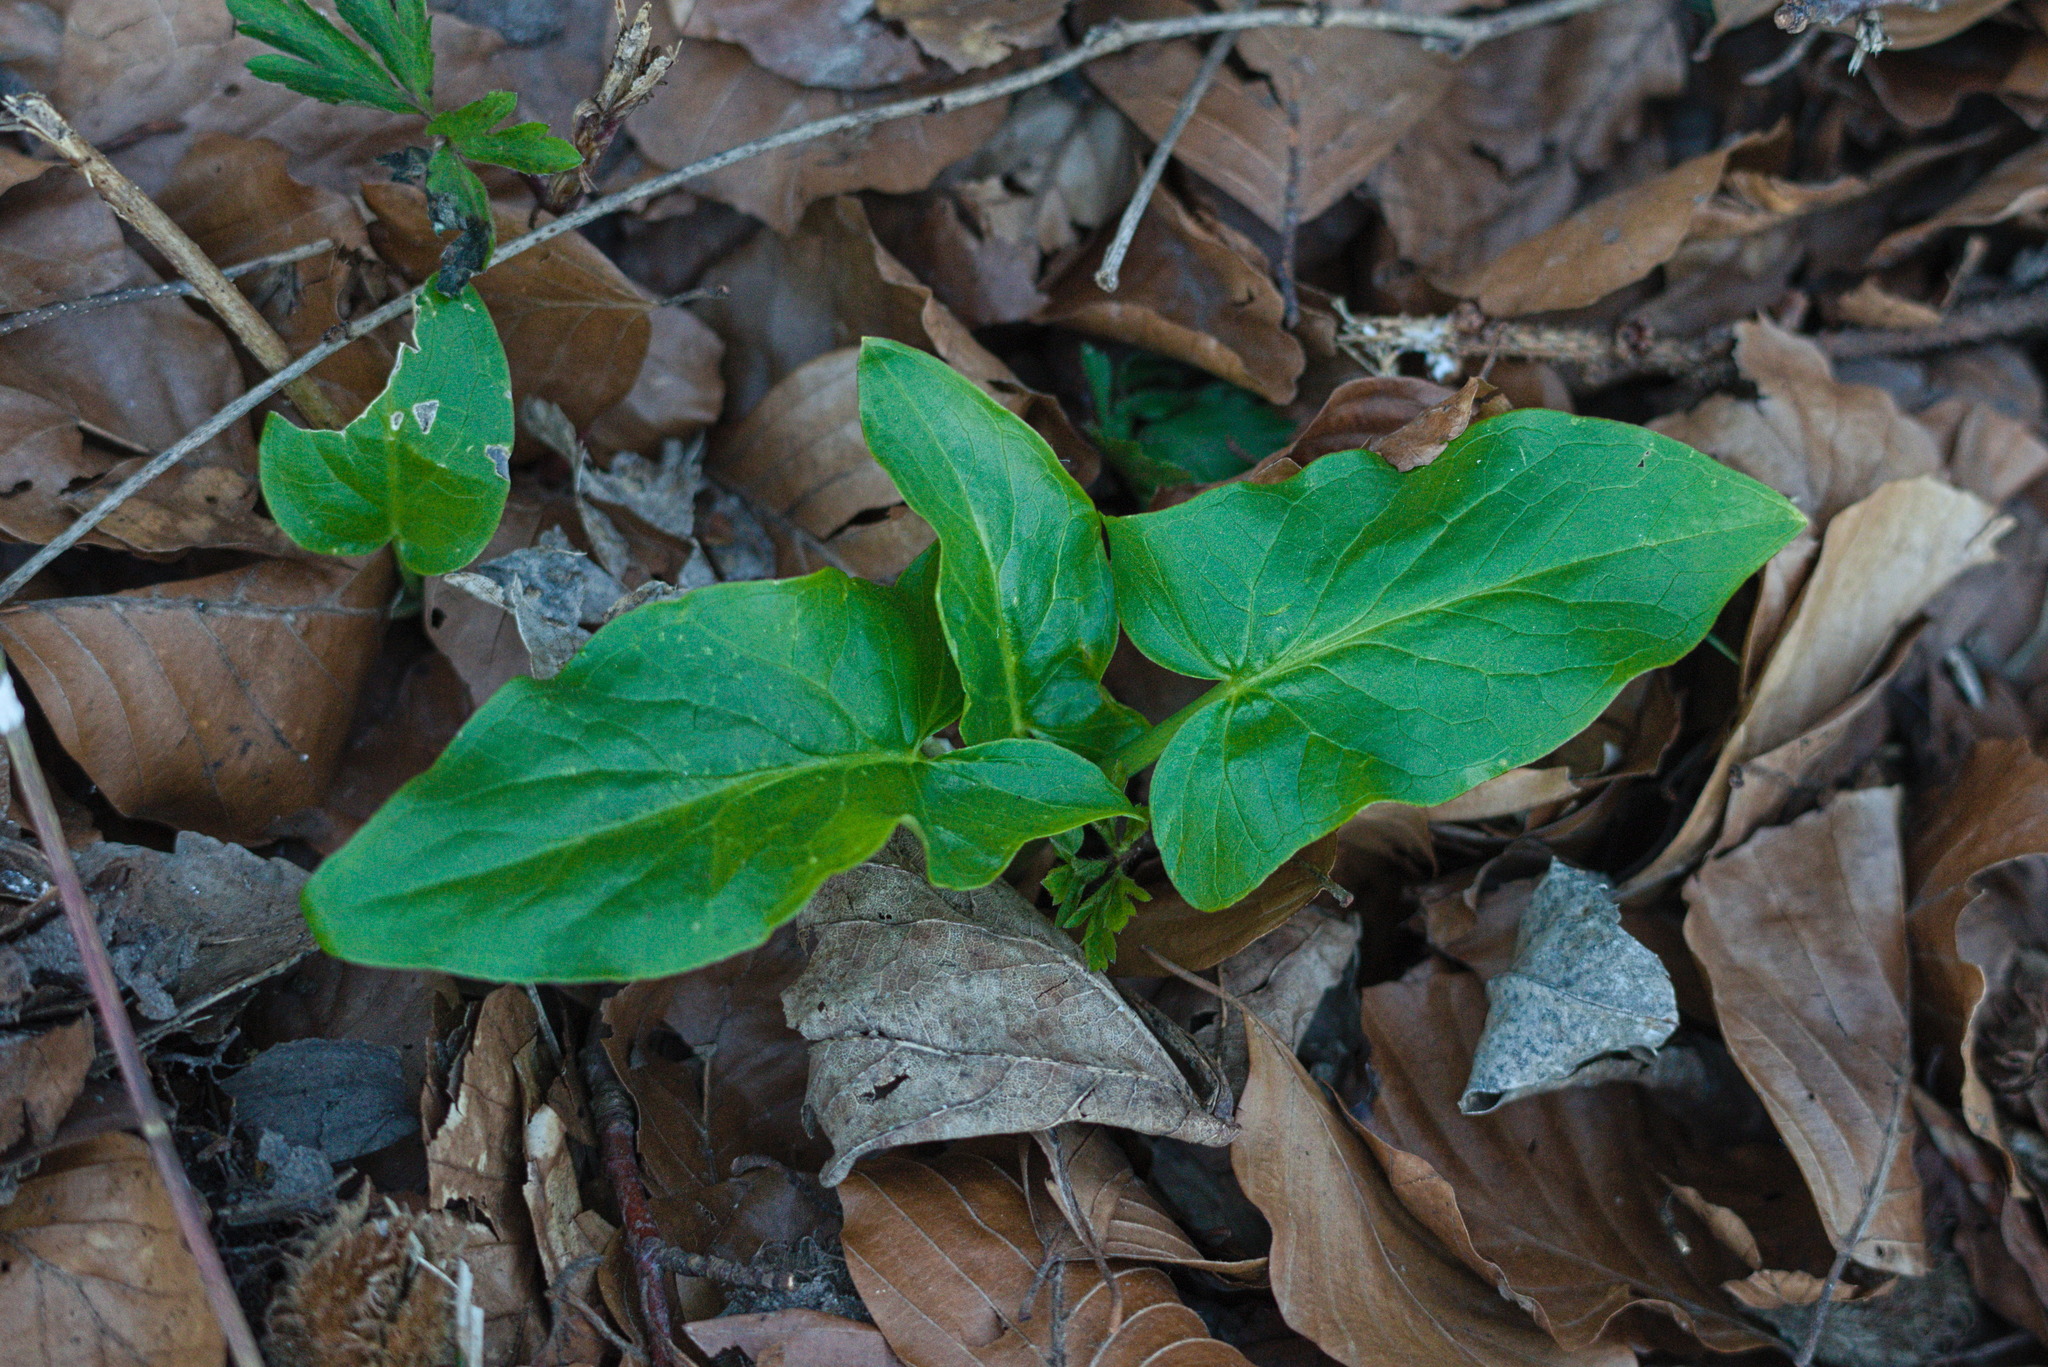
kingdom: Plantae
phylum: Tracheophyta
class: Liliopsida
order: Alismatales
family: Araceae
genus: Arum
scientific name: Arum maculatum
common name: Lords-and-ladies
